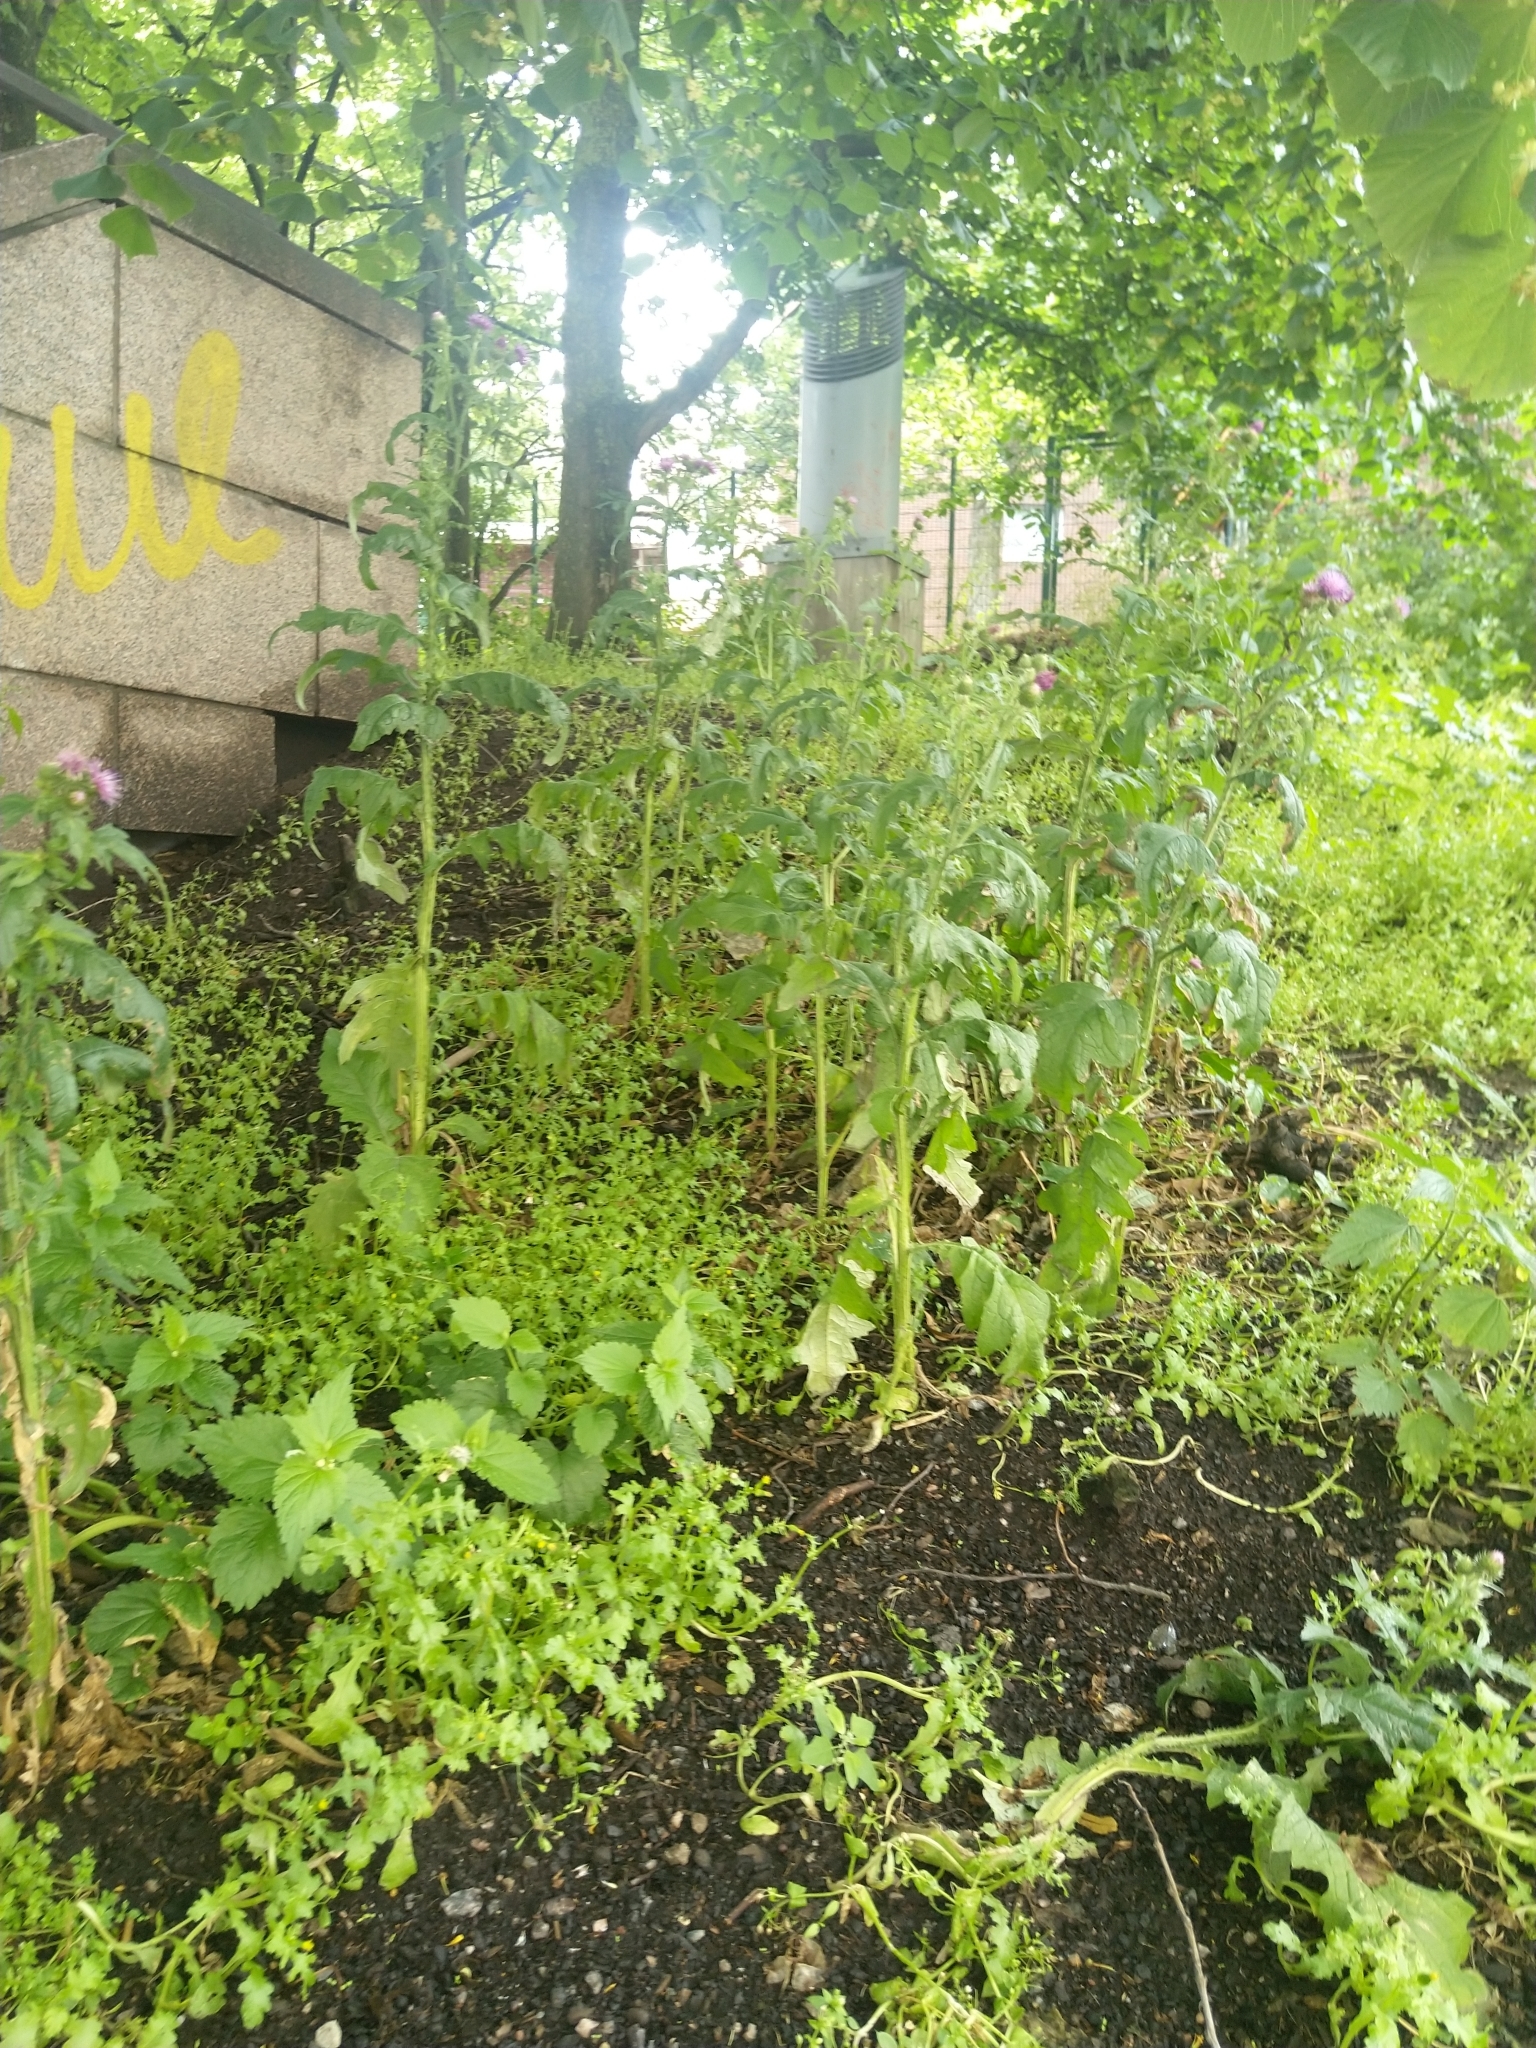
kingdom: Plantae
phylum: Tracheophyta
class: Magnoliopsida
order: Asterales
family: Asteraceae
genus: Carduus
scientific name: Carduus crispus
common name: Welted thistle
